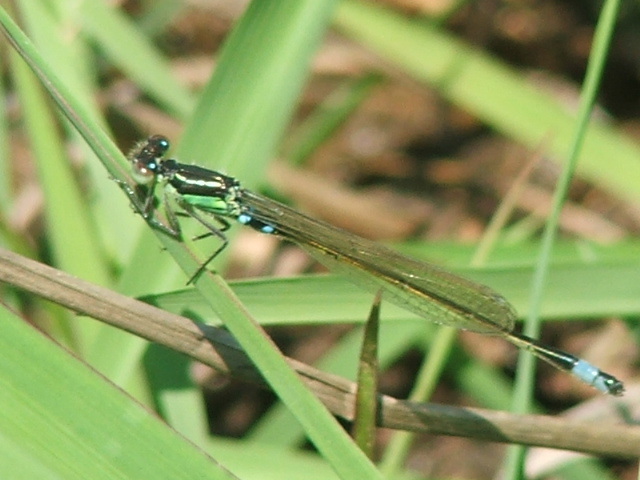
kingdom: Animalia
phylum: Arthropoda
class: Insecta
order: Odonata
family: Coenagrionidae
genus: Ischnura
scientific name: Ischnura senegalensis
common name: Tropical bluetail
